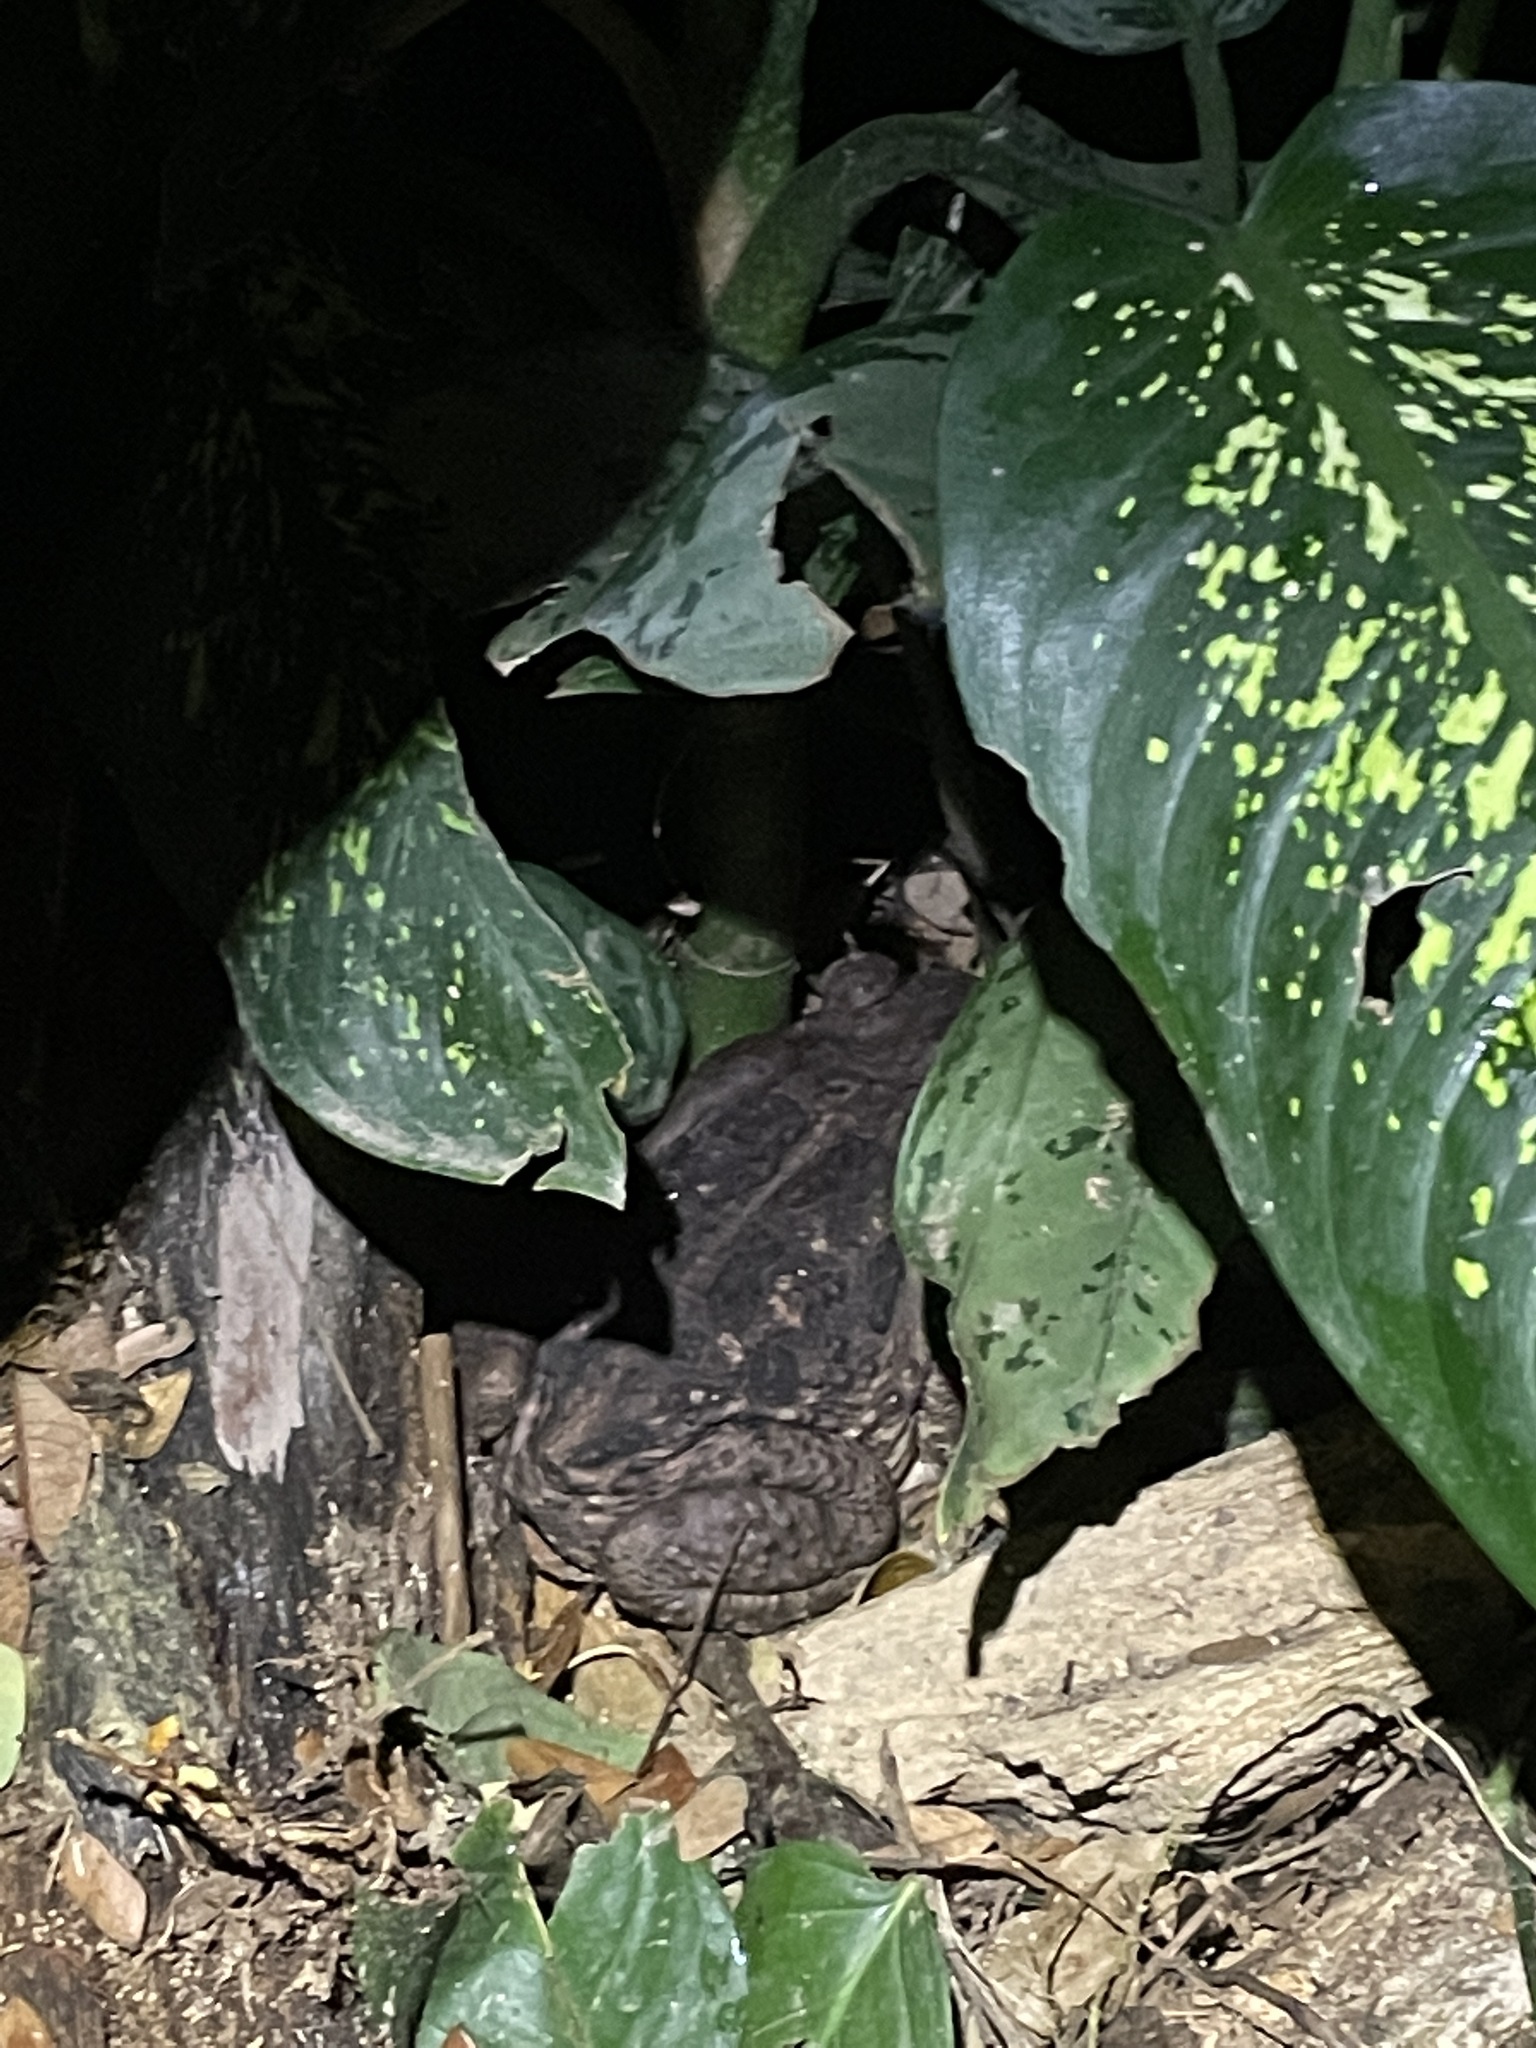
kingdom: Animalia
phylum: Chordata
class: Amphibia
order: Anura
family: Bufonidae
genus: Rhinella
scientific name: Rhinella marina
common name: Cane toad
